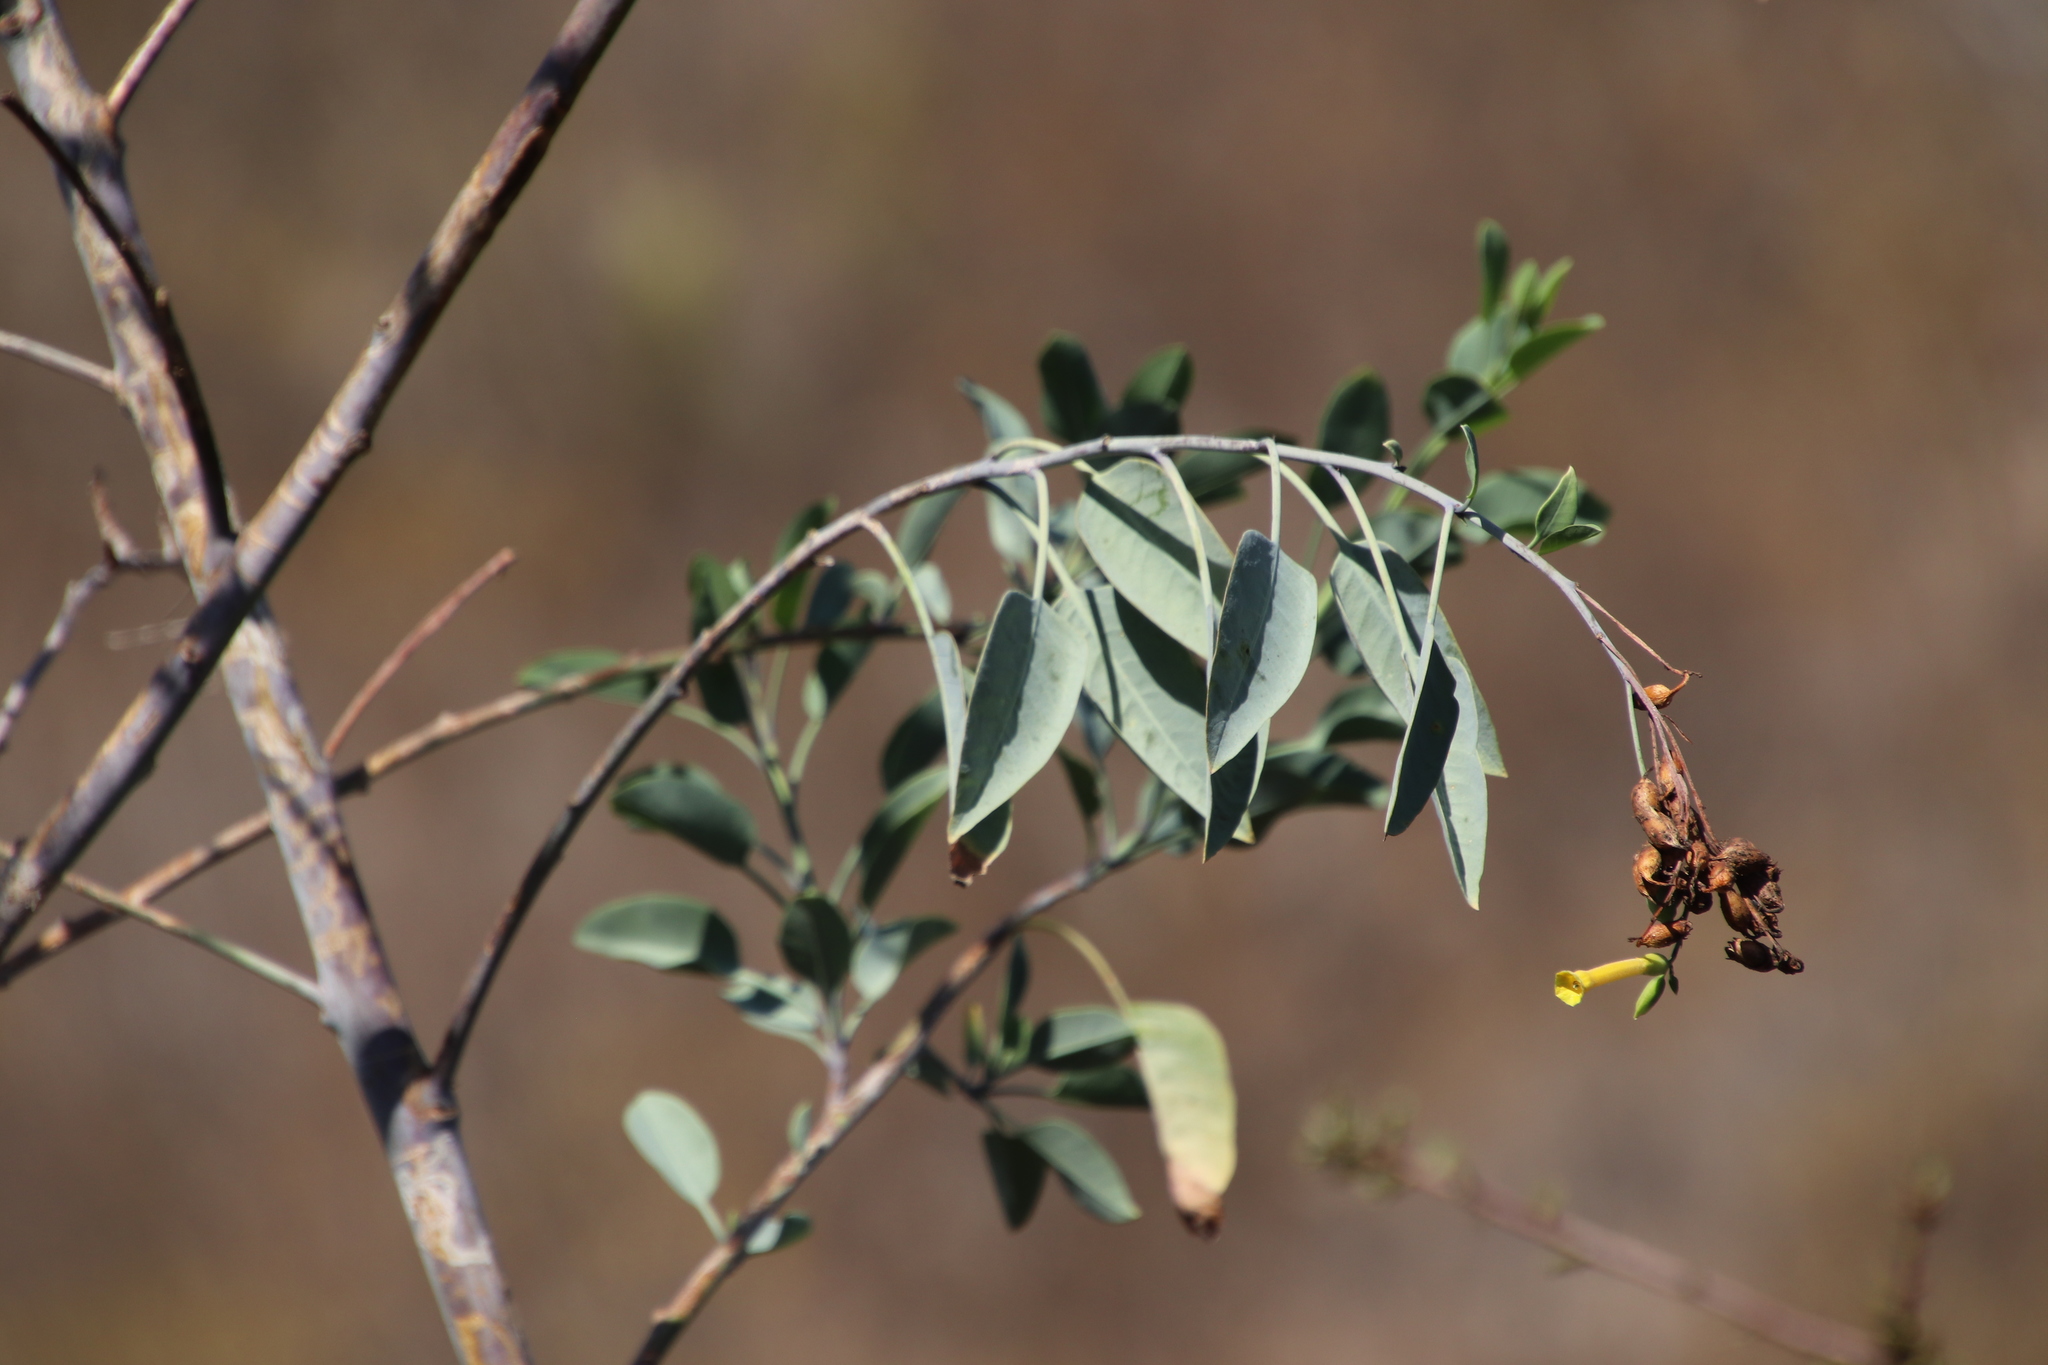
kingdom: Plantae
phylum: Tracheophyta
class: Magnoliopsida
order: Solanales
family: Solanaceae
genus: Nicotiana
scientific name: Nicotiana glauca
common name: Tree tobacco
